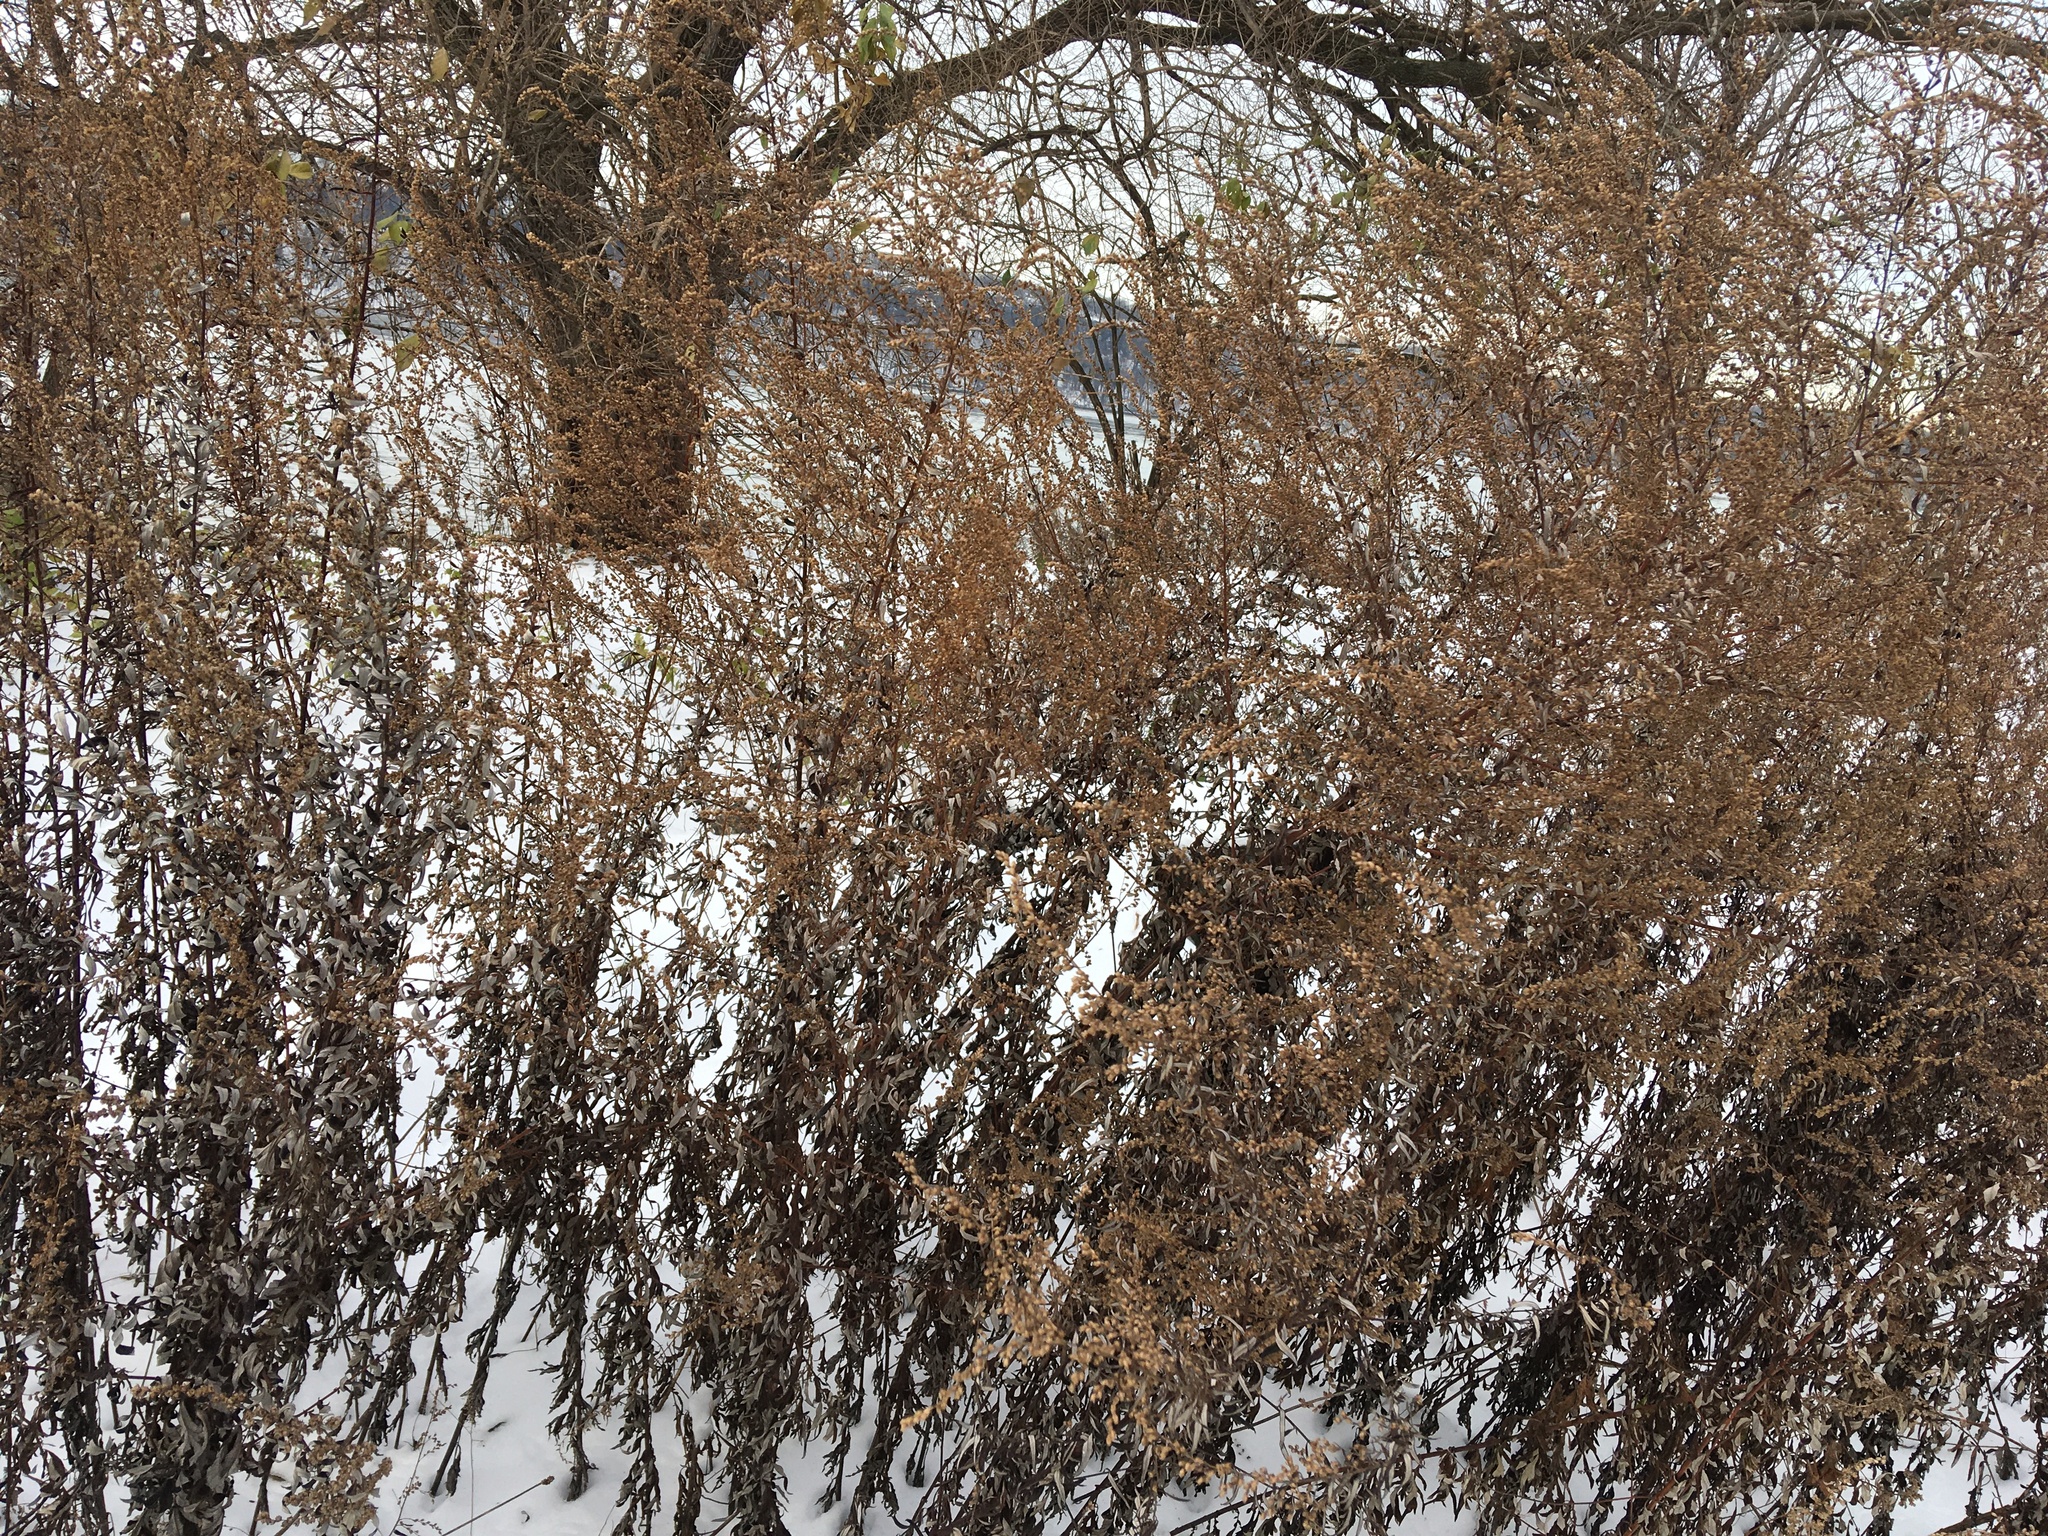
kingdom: Plantae
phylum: Tracheophyta
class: Magnoliopsida
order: Asterales
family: Asteraceae
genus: Artemisia
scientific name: Artemisia vulgaris
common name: Mugwort
